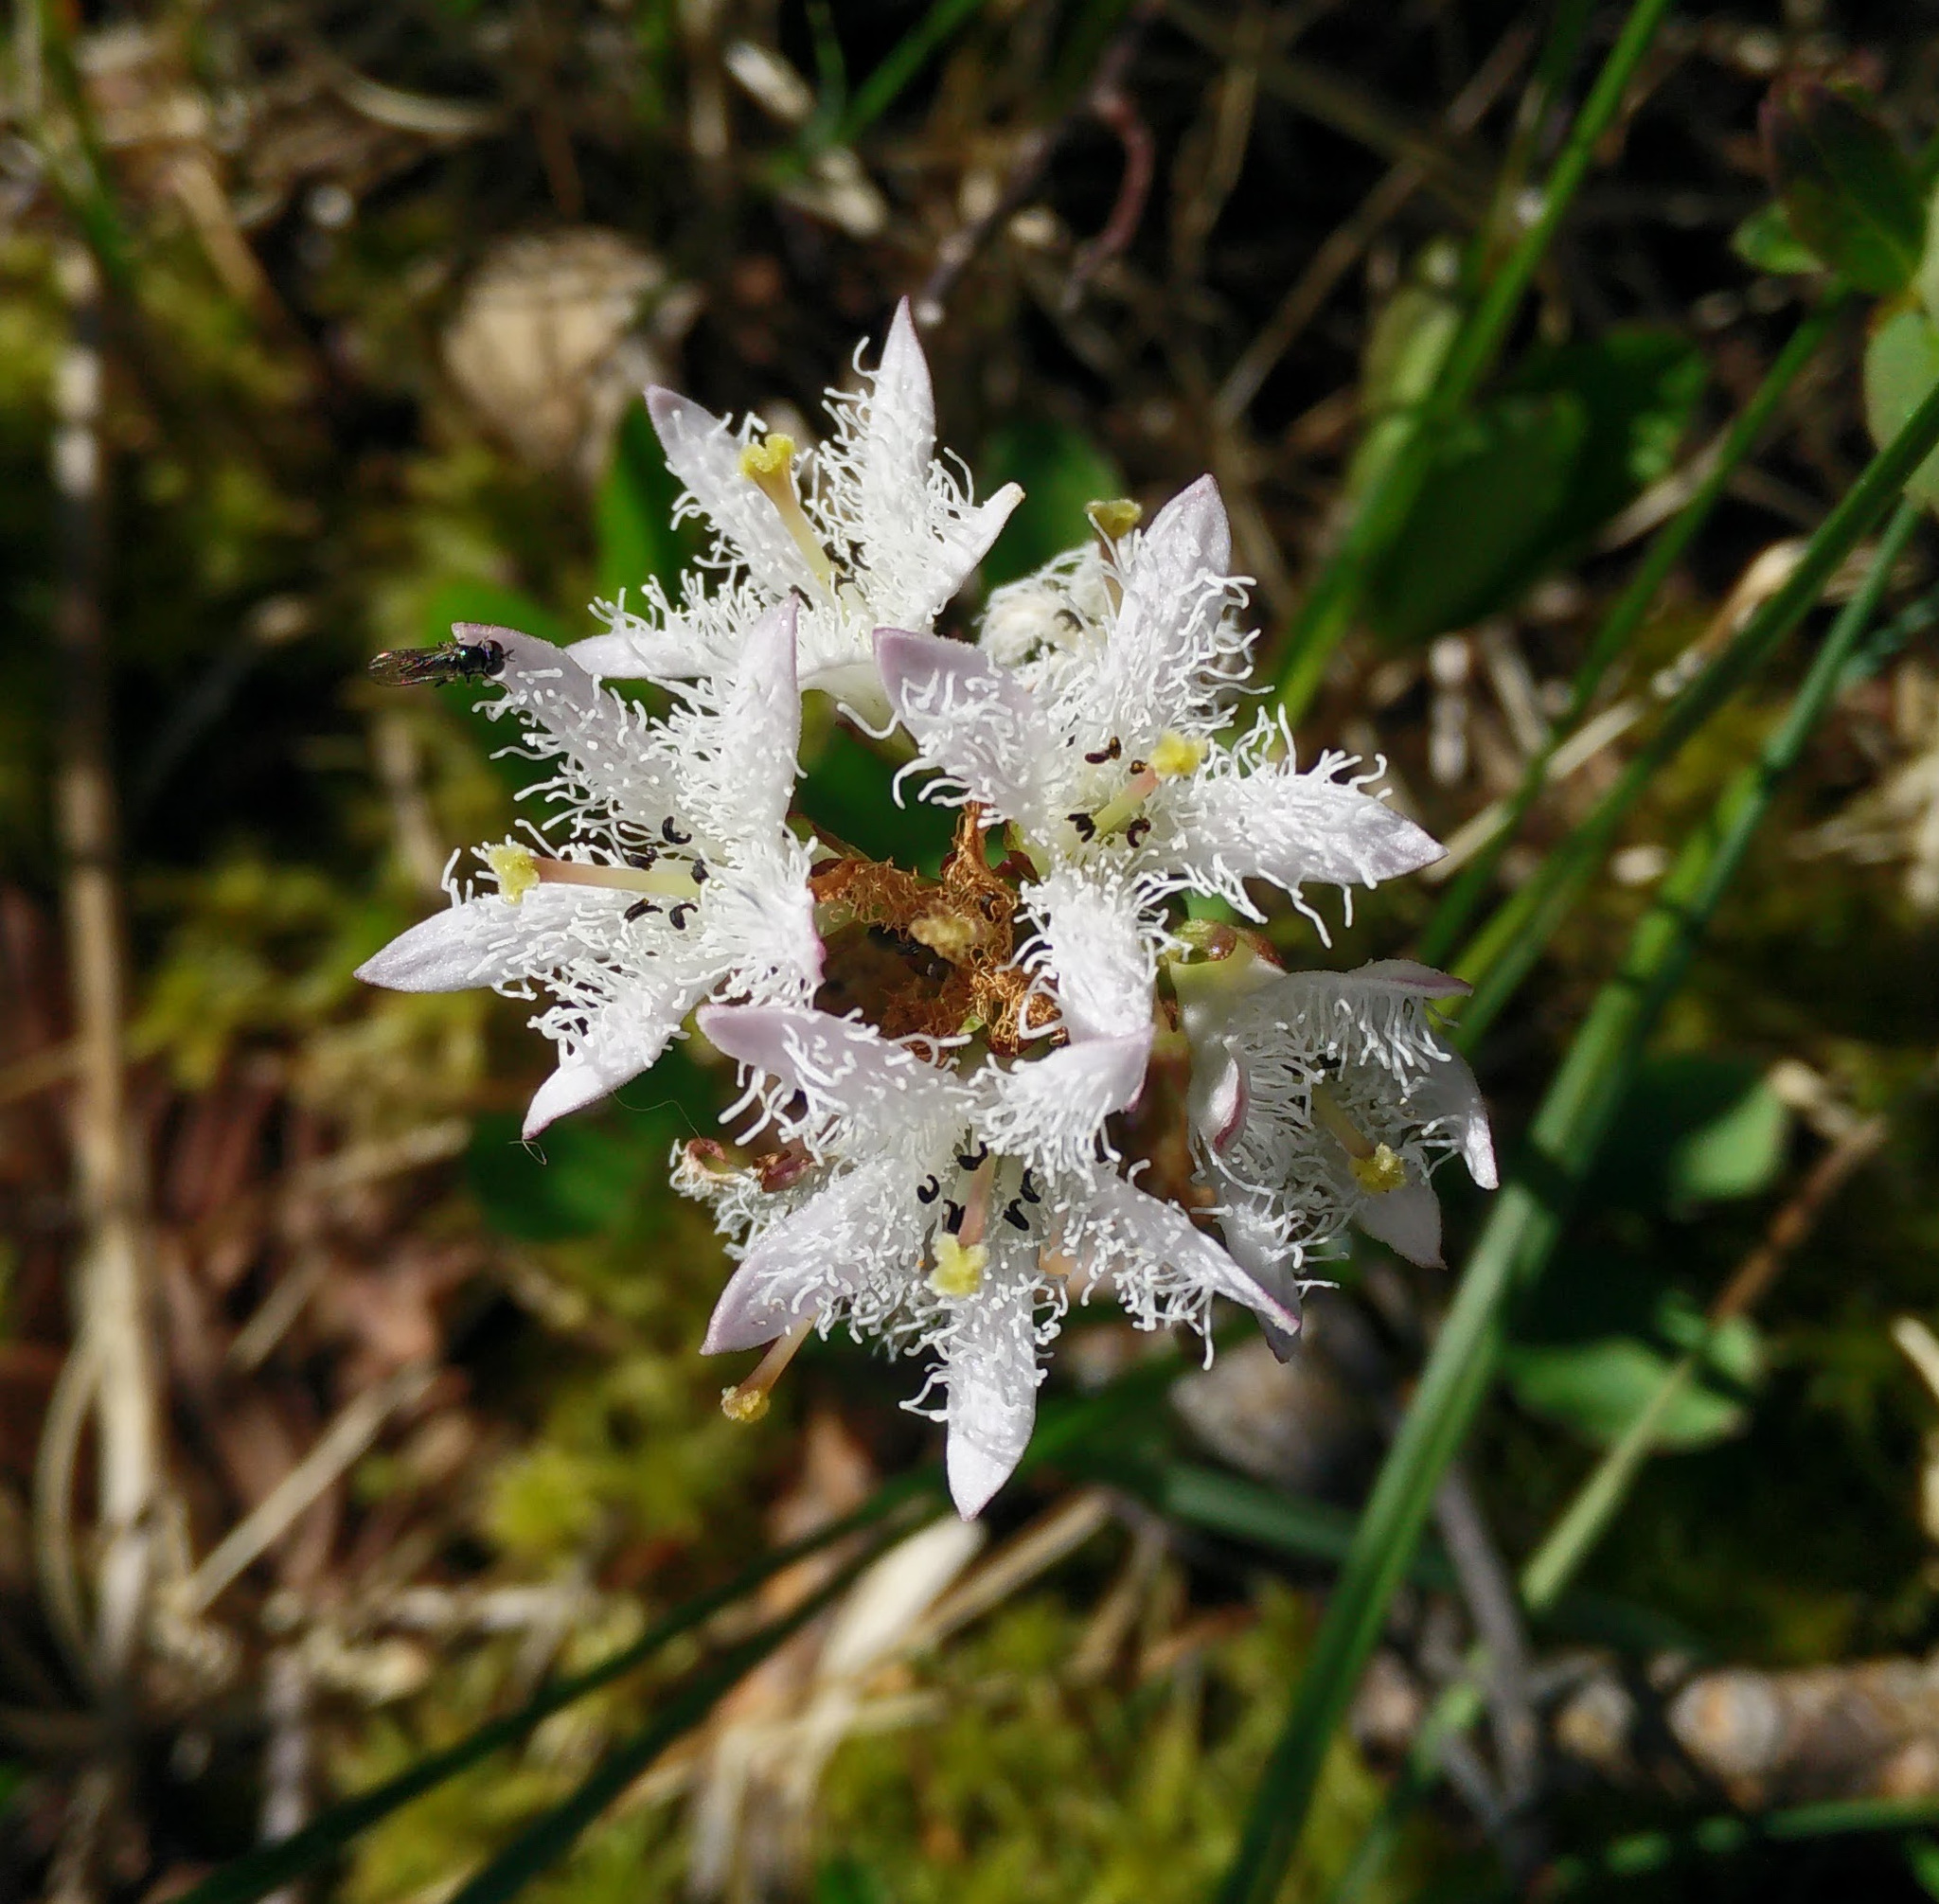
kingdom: Plantae
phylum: Tracheophyta
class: Magnoliopsida
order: Asterales
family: Menyanthaceae
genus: Menyanthes
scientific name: Menyanthes trifoliata
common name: Bogbean
